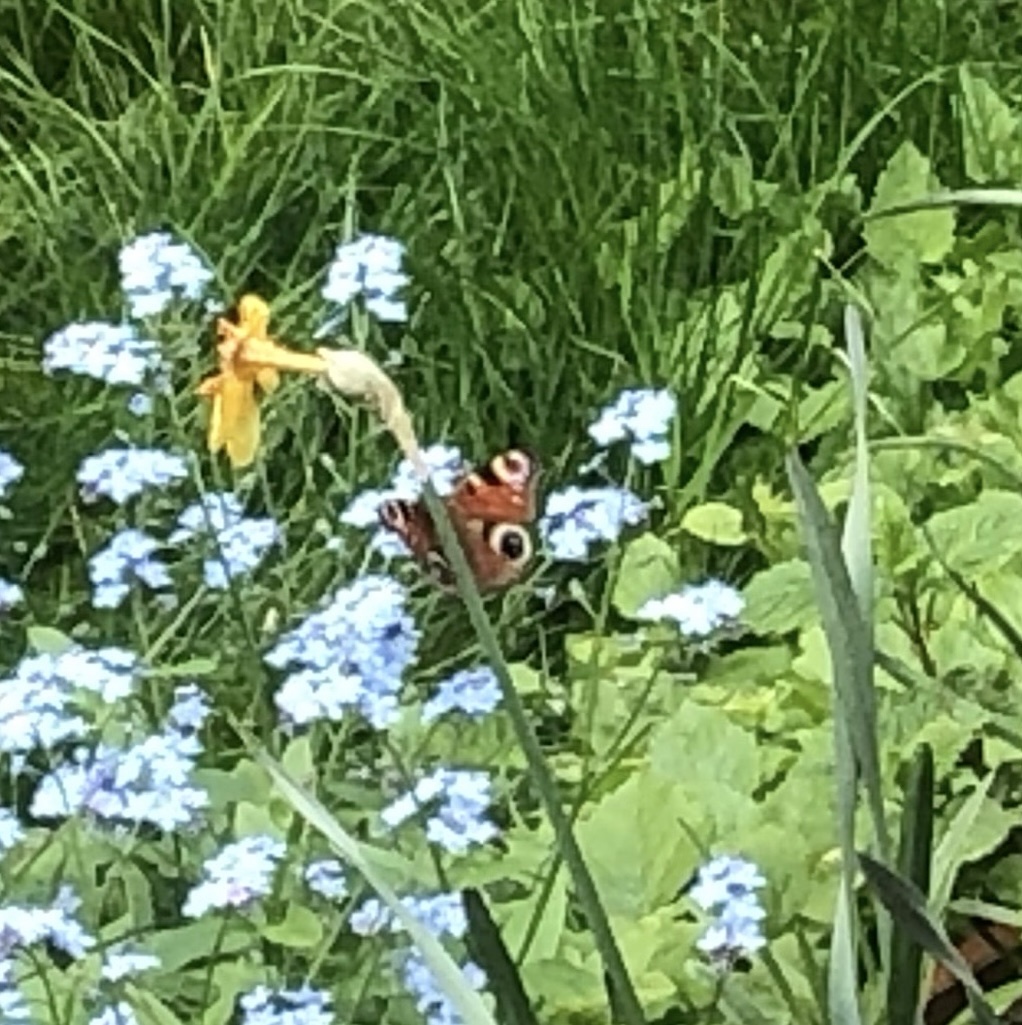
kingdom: Animalia
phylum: Arthropoda
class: Insecta
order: Lepidoptera
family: Nymphalidae
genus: Aglais
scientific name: Aglais io
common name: Peacock
